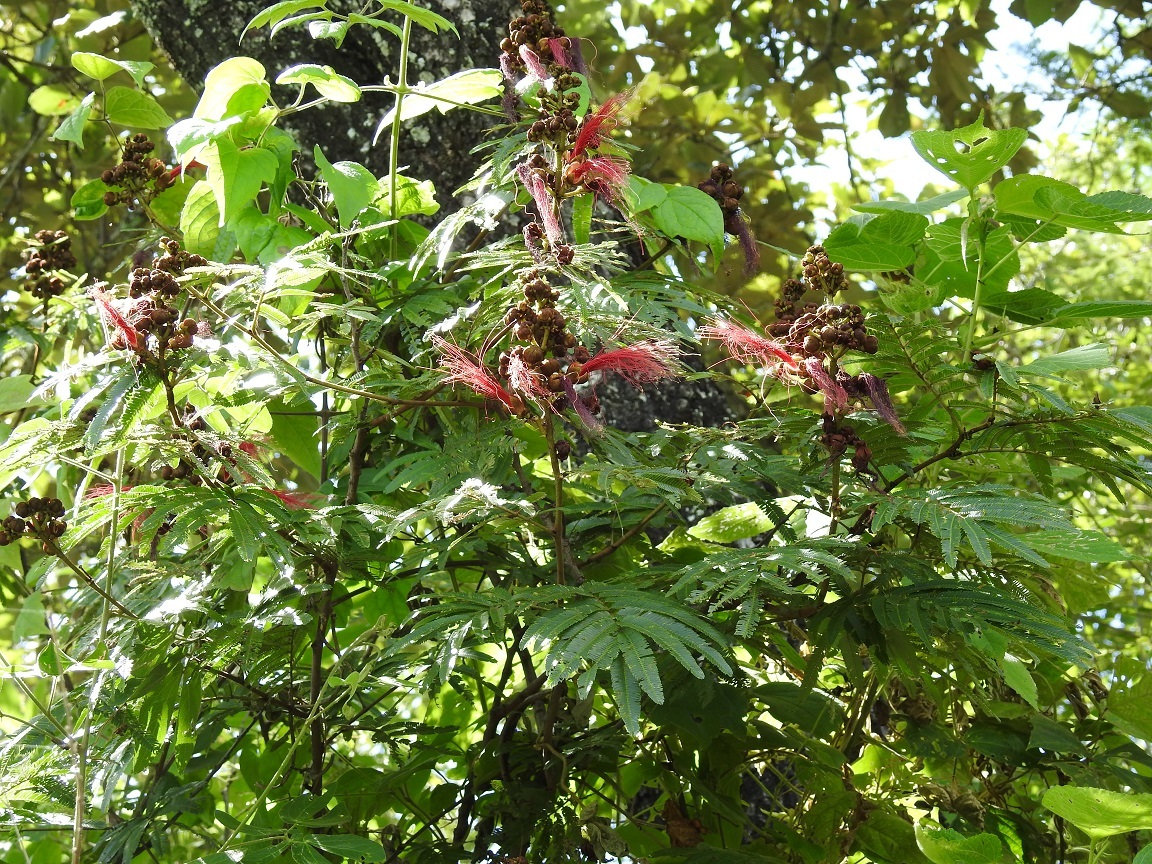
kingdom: Plantae
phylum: Tracheophyta
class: Magnoliopsida
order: Fabales
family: Fabaceae
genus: Calliandra
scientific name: Calliandra houstoniana
